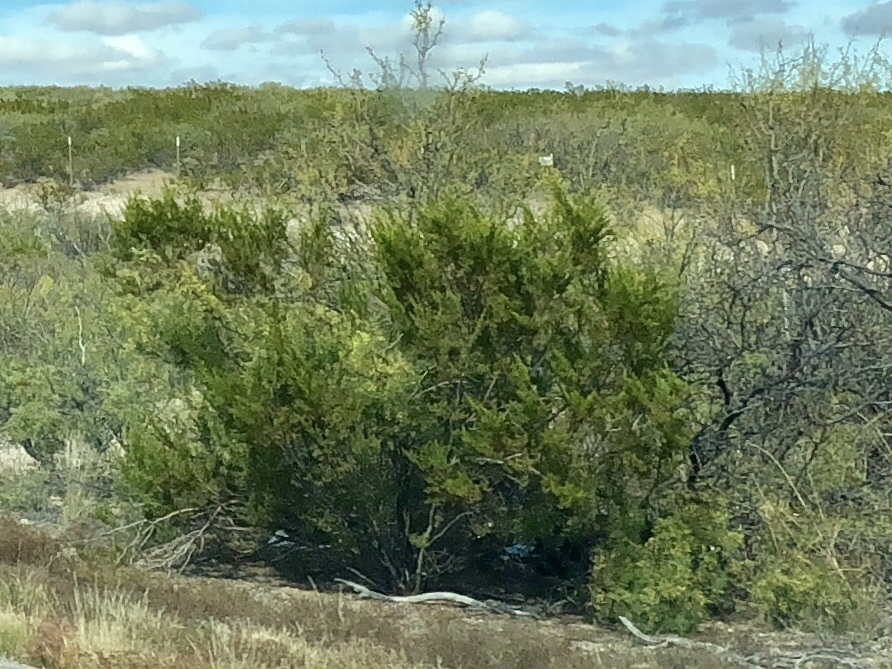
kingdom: Plantae
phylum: Tracheophyta
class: Magnoliopsida
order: Zygophyllales
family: Zygophyllaceae
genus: Larrea
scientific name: Larrea tridentata
